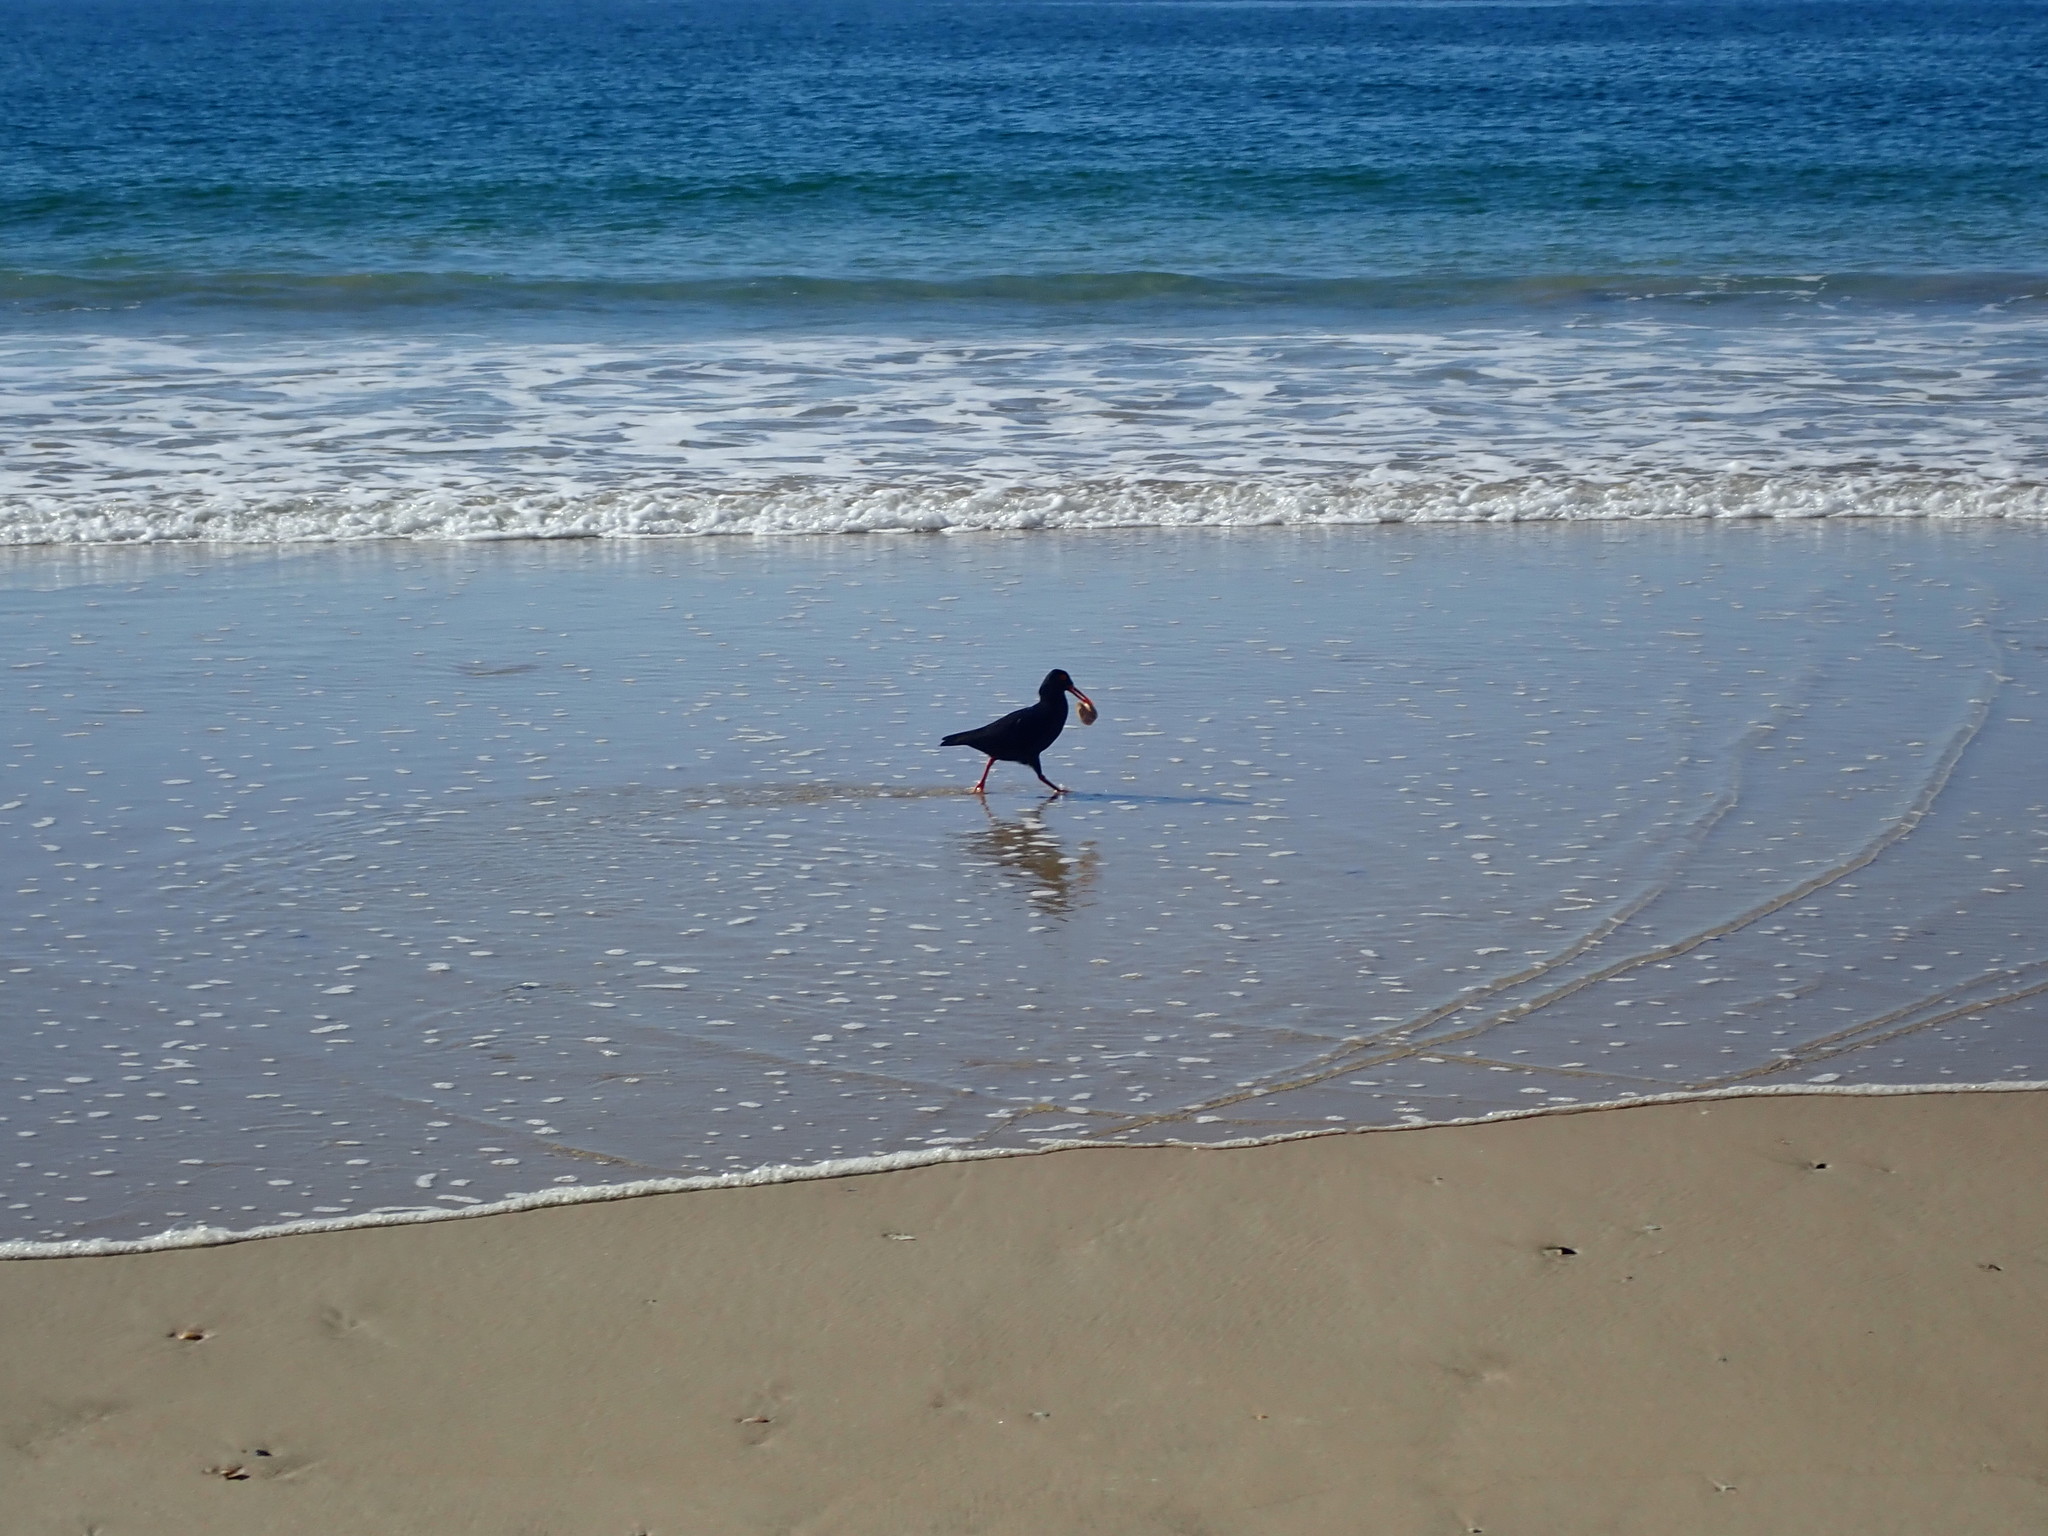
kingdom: Animalia
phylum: Chordata
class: Aves
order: Charadriiformes
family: Haematopodidae
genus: Haematopus
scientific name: Haematopus moquini
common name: African oystercatcher
